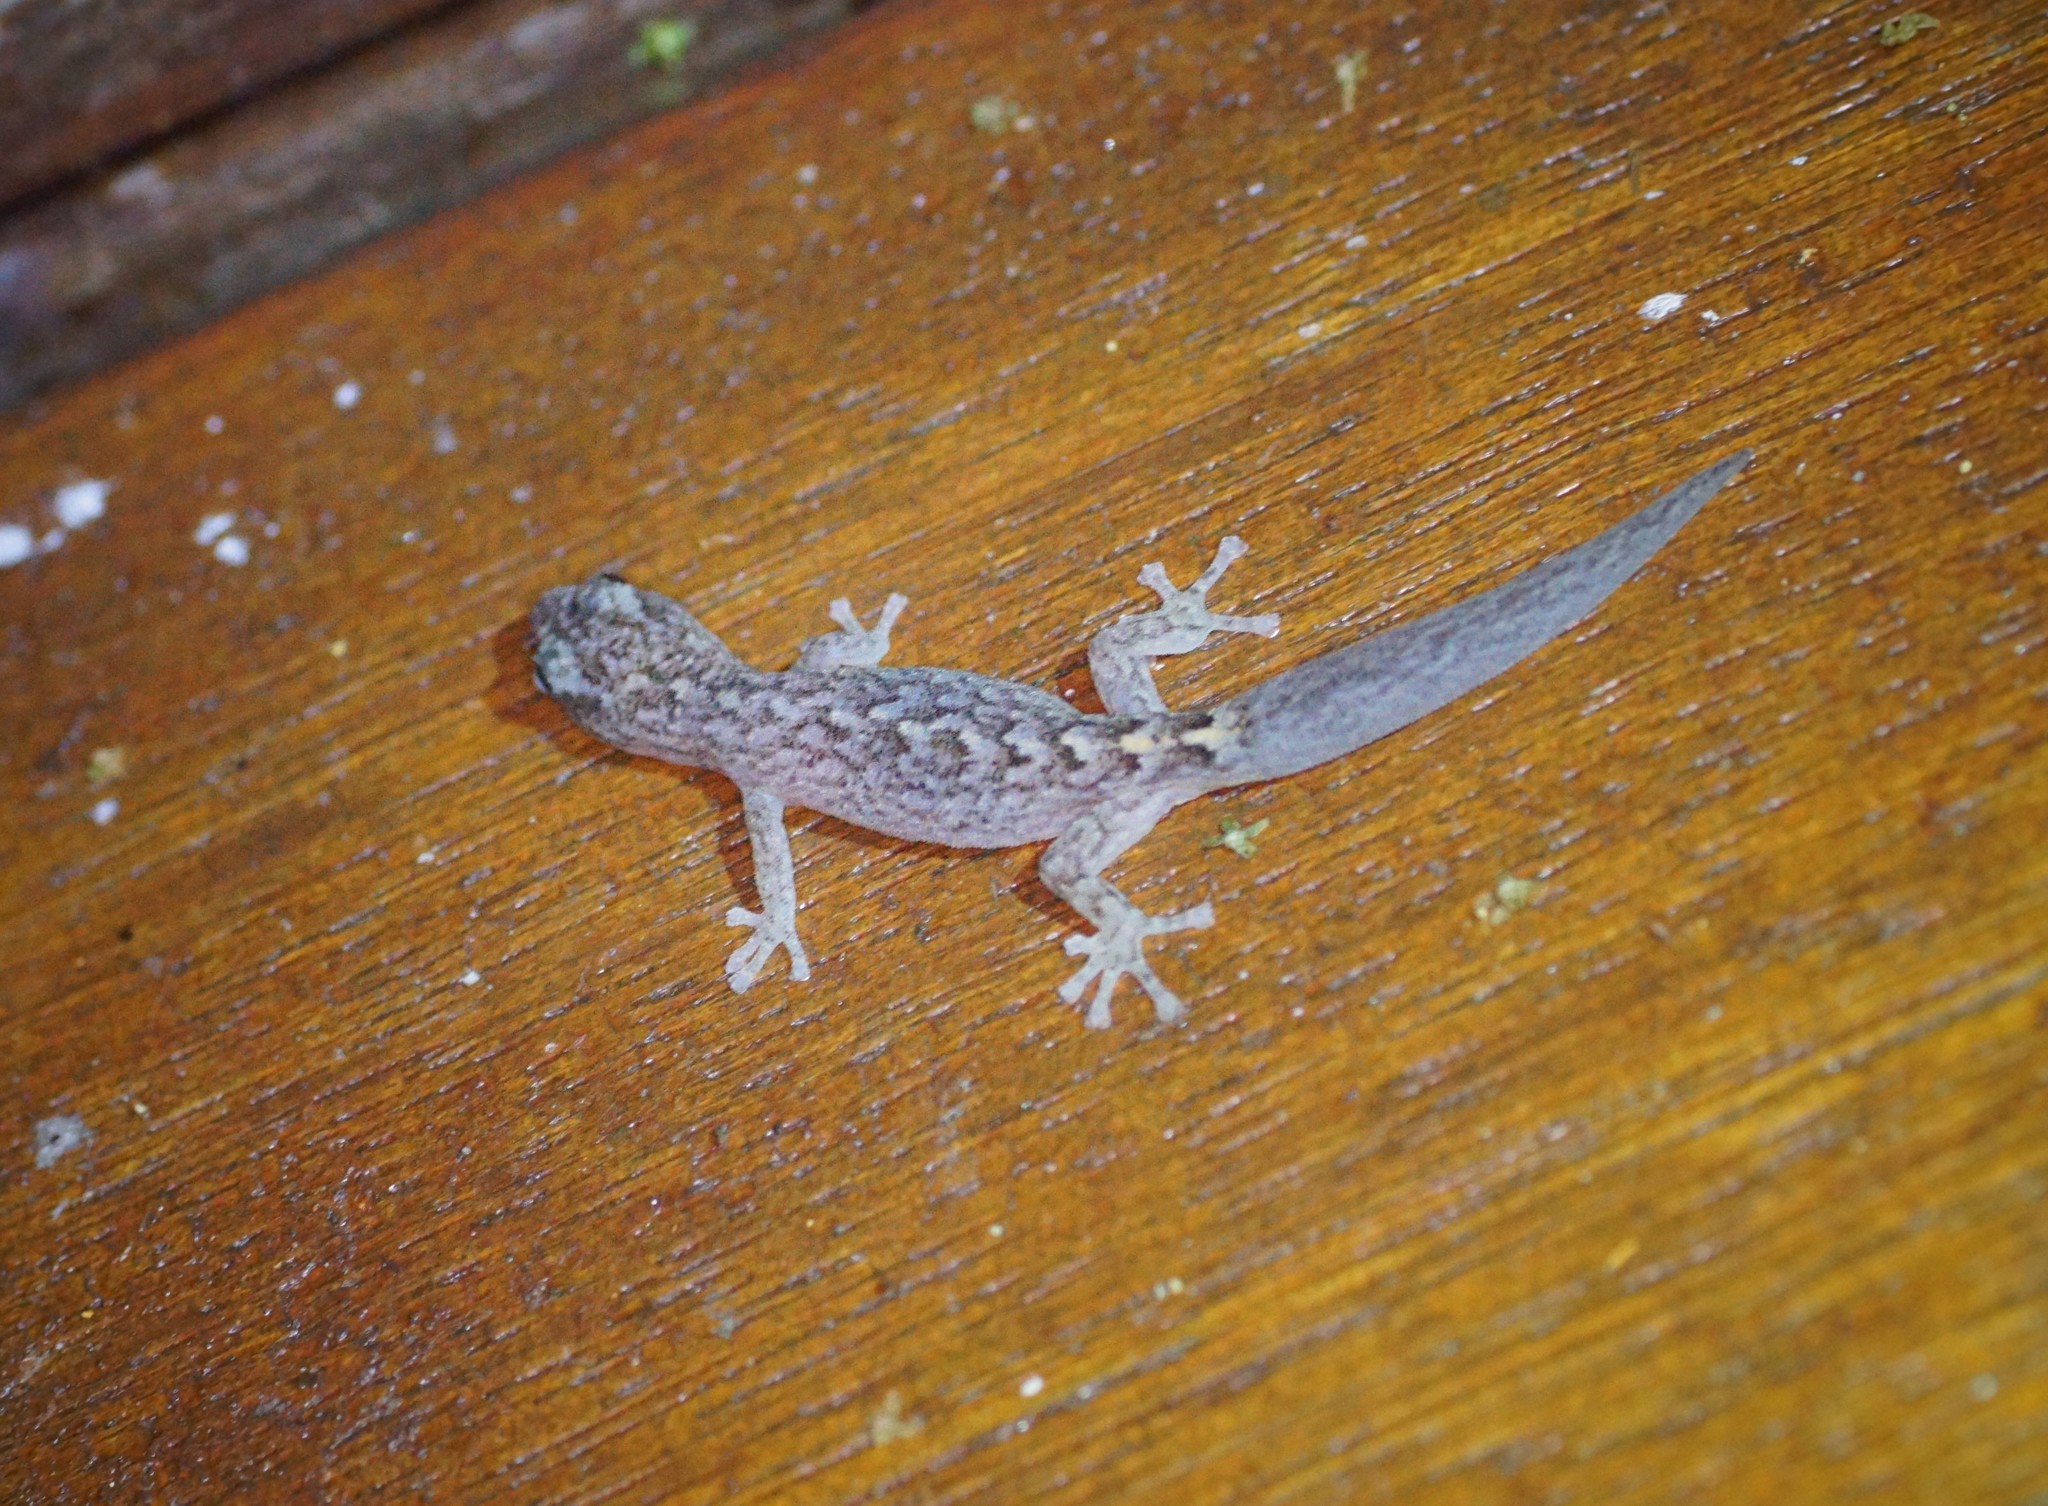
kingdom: Animalia
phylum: Chordata
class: Squamata
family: Gekkonidae
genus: Christinus
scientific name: Christinus marmoratus
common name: Marbled gecko
